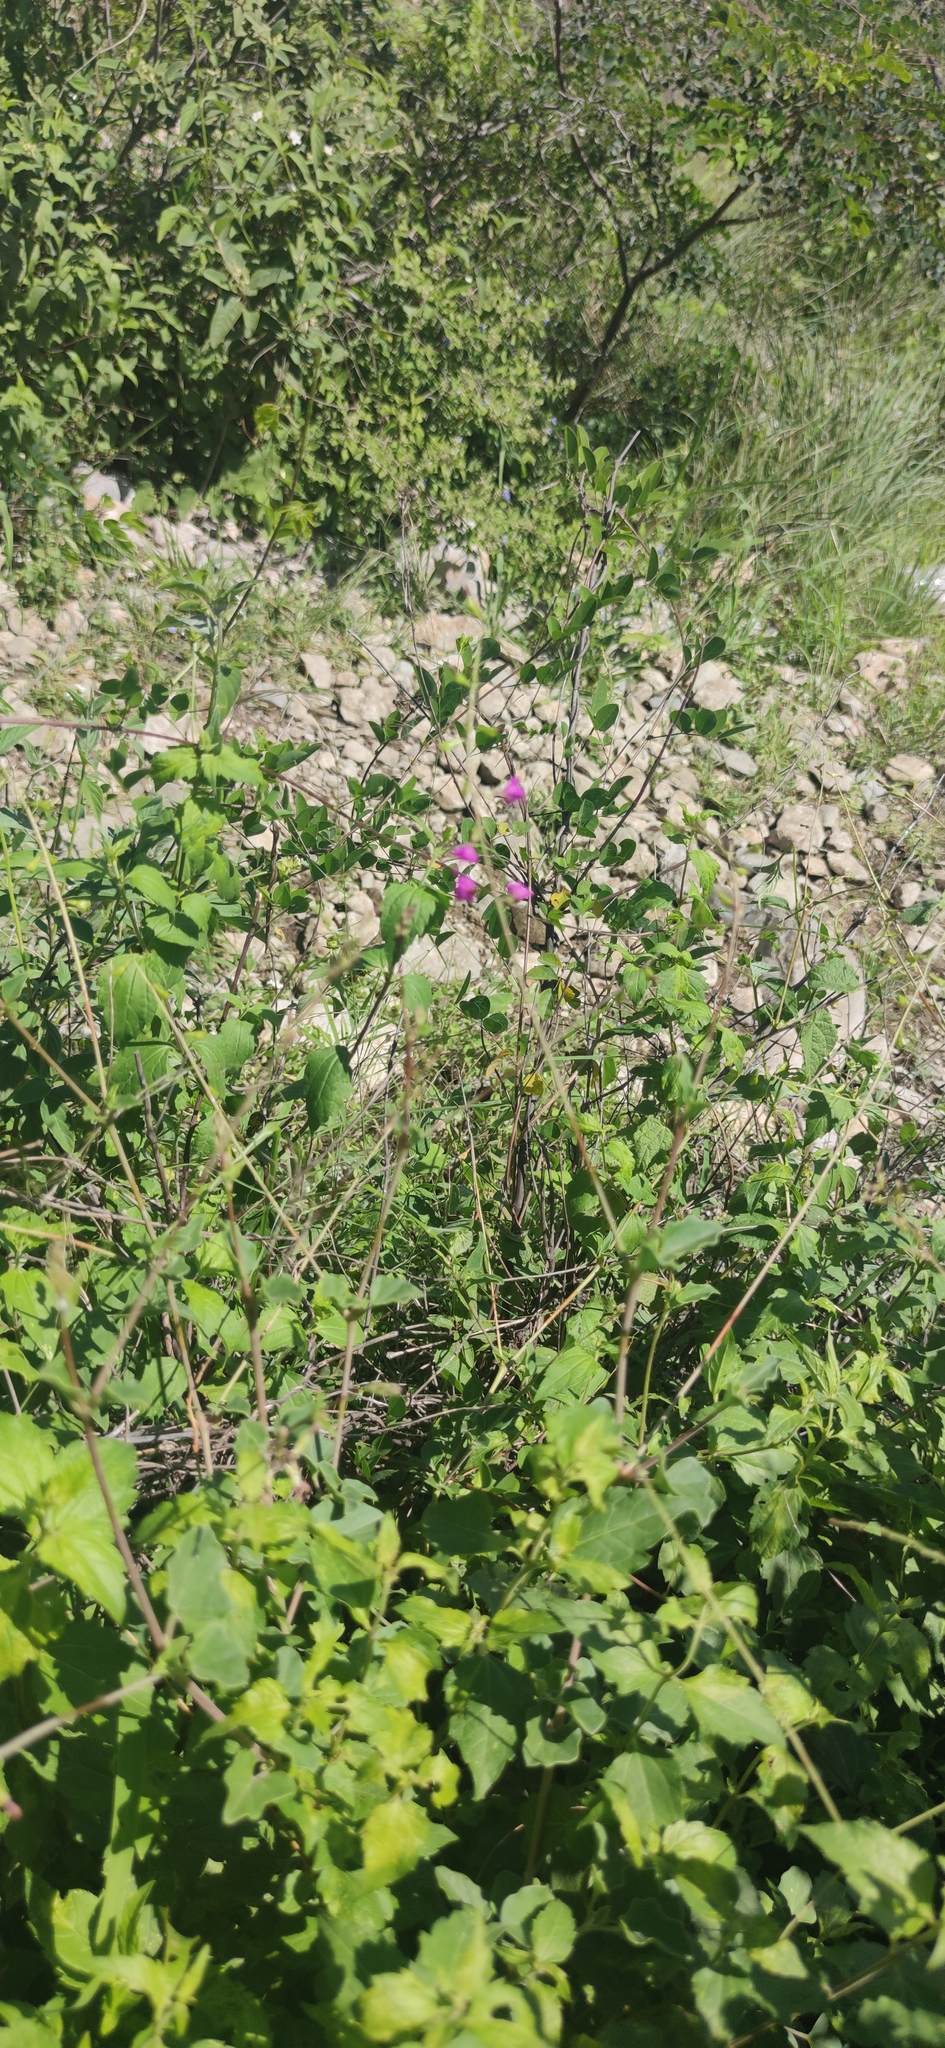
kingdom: Plantae
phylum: Tracheophyta
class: Magnoliopsida
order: Caryophyllales
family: Nyctaginaceae
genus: Cyphomeris
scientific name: Cyphomeris gypsophiloides
